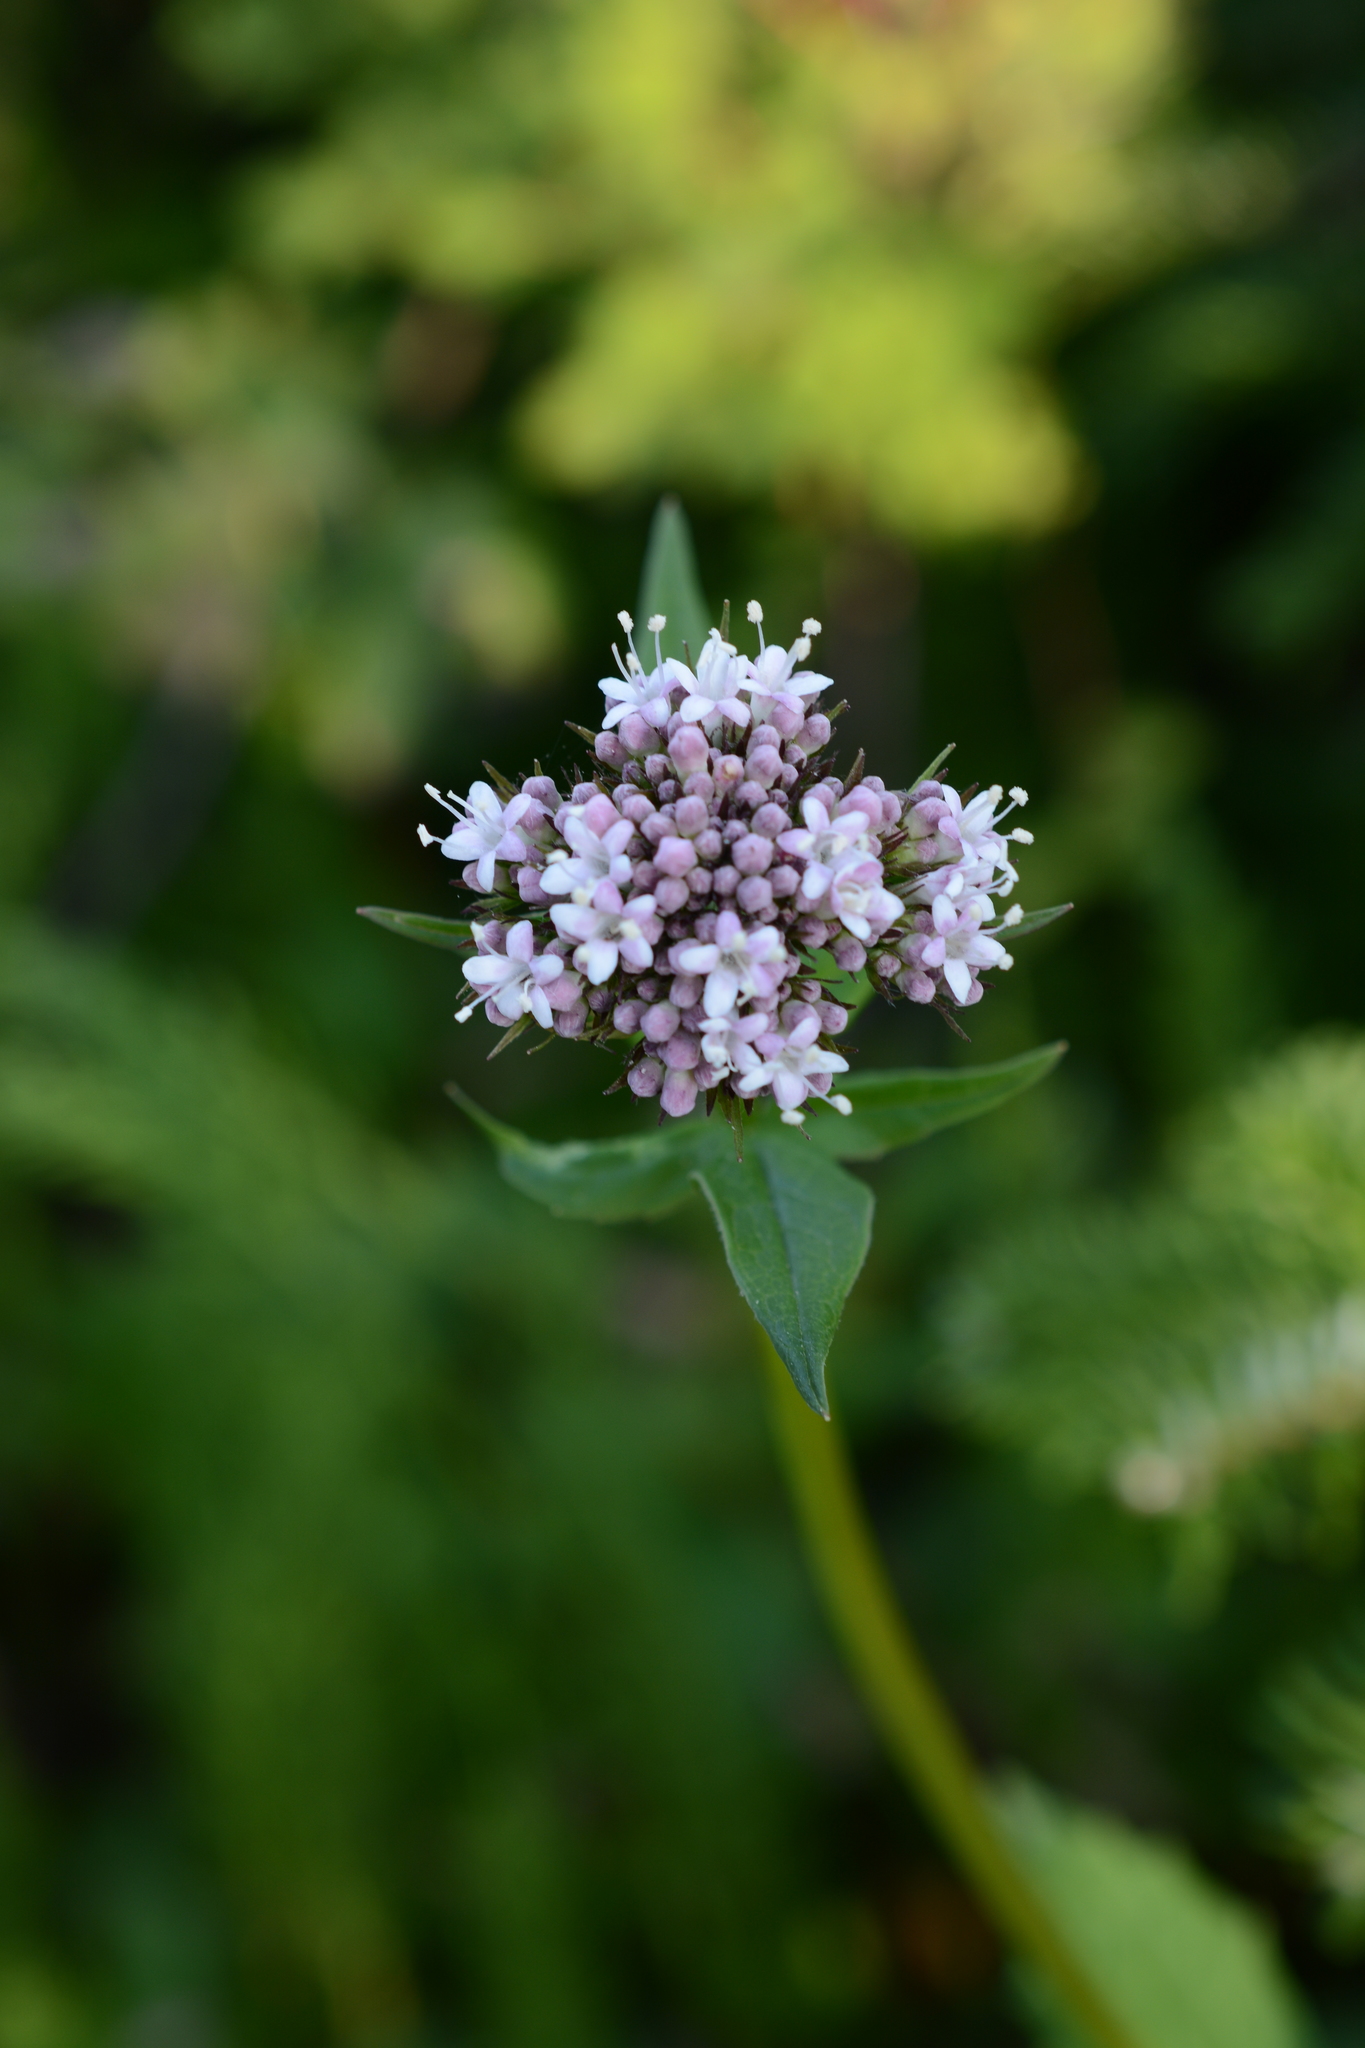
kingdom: Plantae
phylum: Tracheophyta
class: Magnoliopsida
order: Dipsacales
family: Caprifoliaceae
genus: Valeriana
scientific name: Valeriana sitchensis
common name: Pacific valerian
